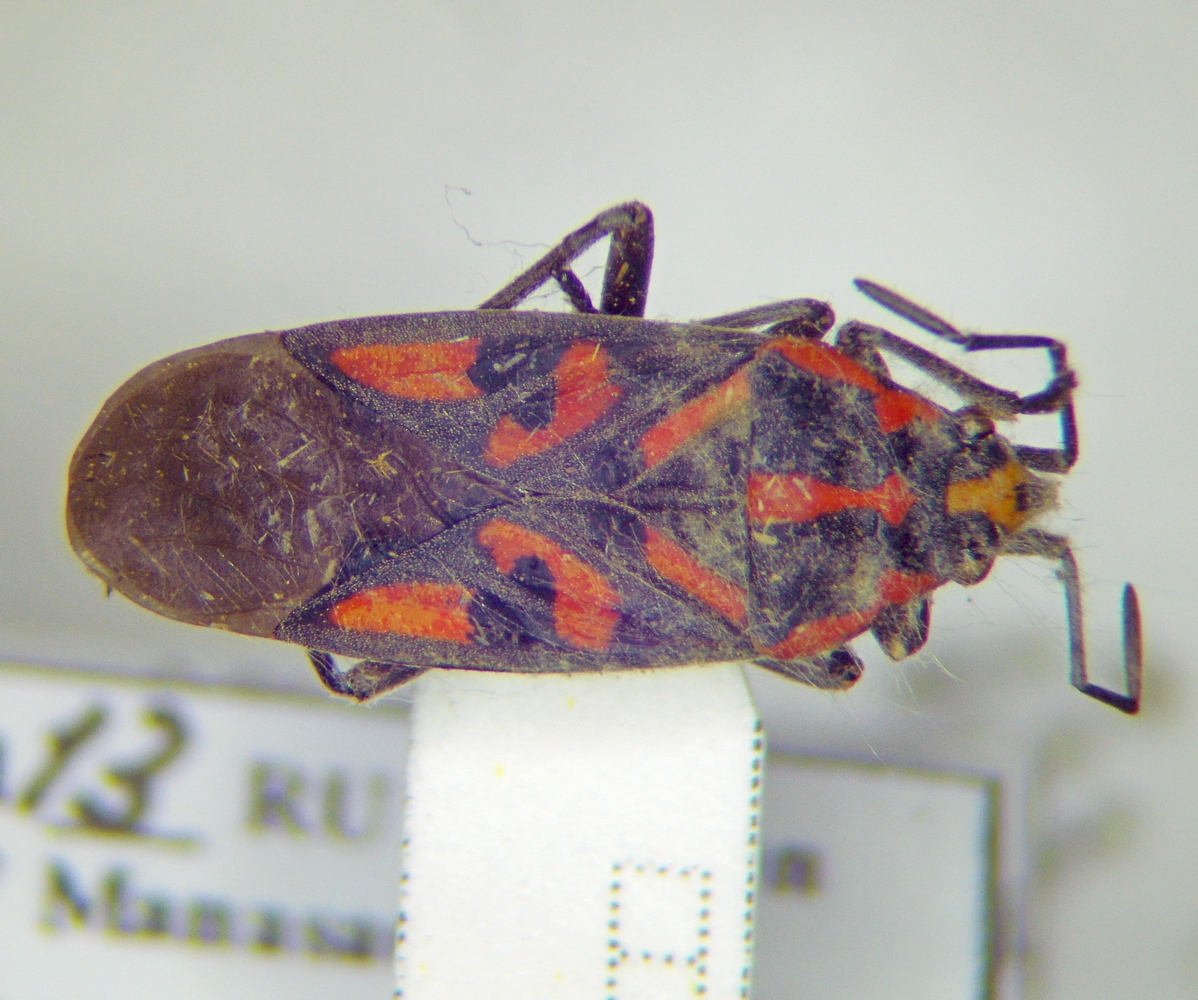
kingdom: Animalia
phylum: Arthropoda
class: Insecta
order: Hemiptera
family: Lygaeidae
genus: Spilostethus
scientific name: Spilostethus saxatilis
